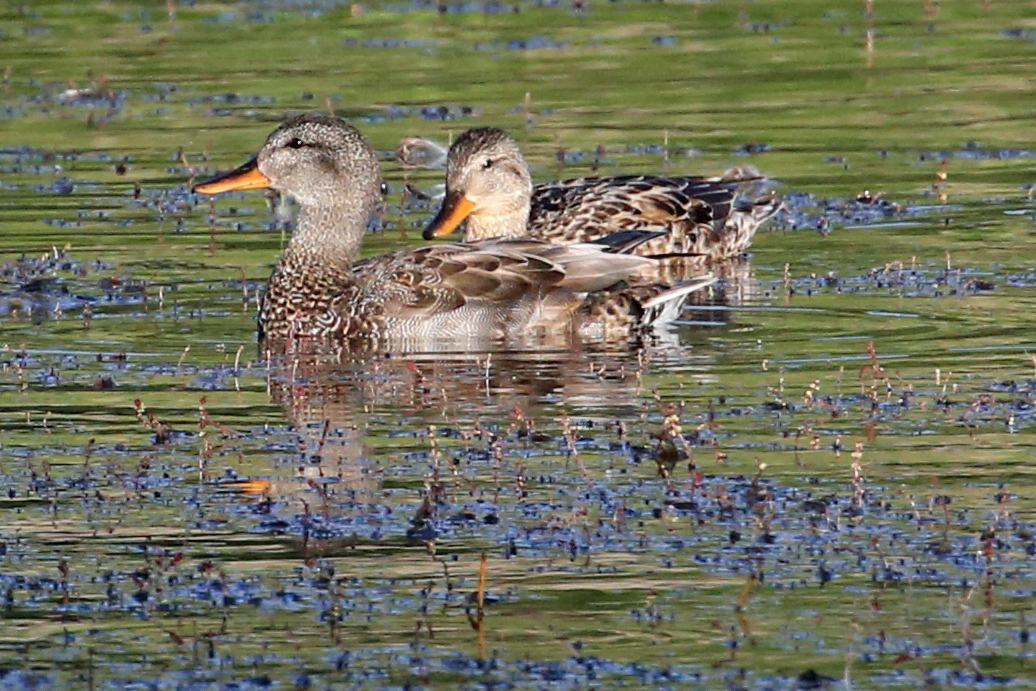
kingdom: Animalia
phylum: Chordata
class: Aves
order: Anseriformes
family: Anatidae
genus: Mareca
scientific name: Mareca strepera
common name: Gadwall
